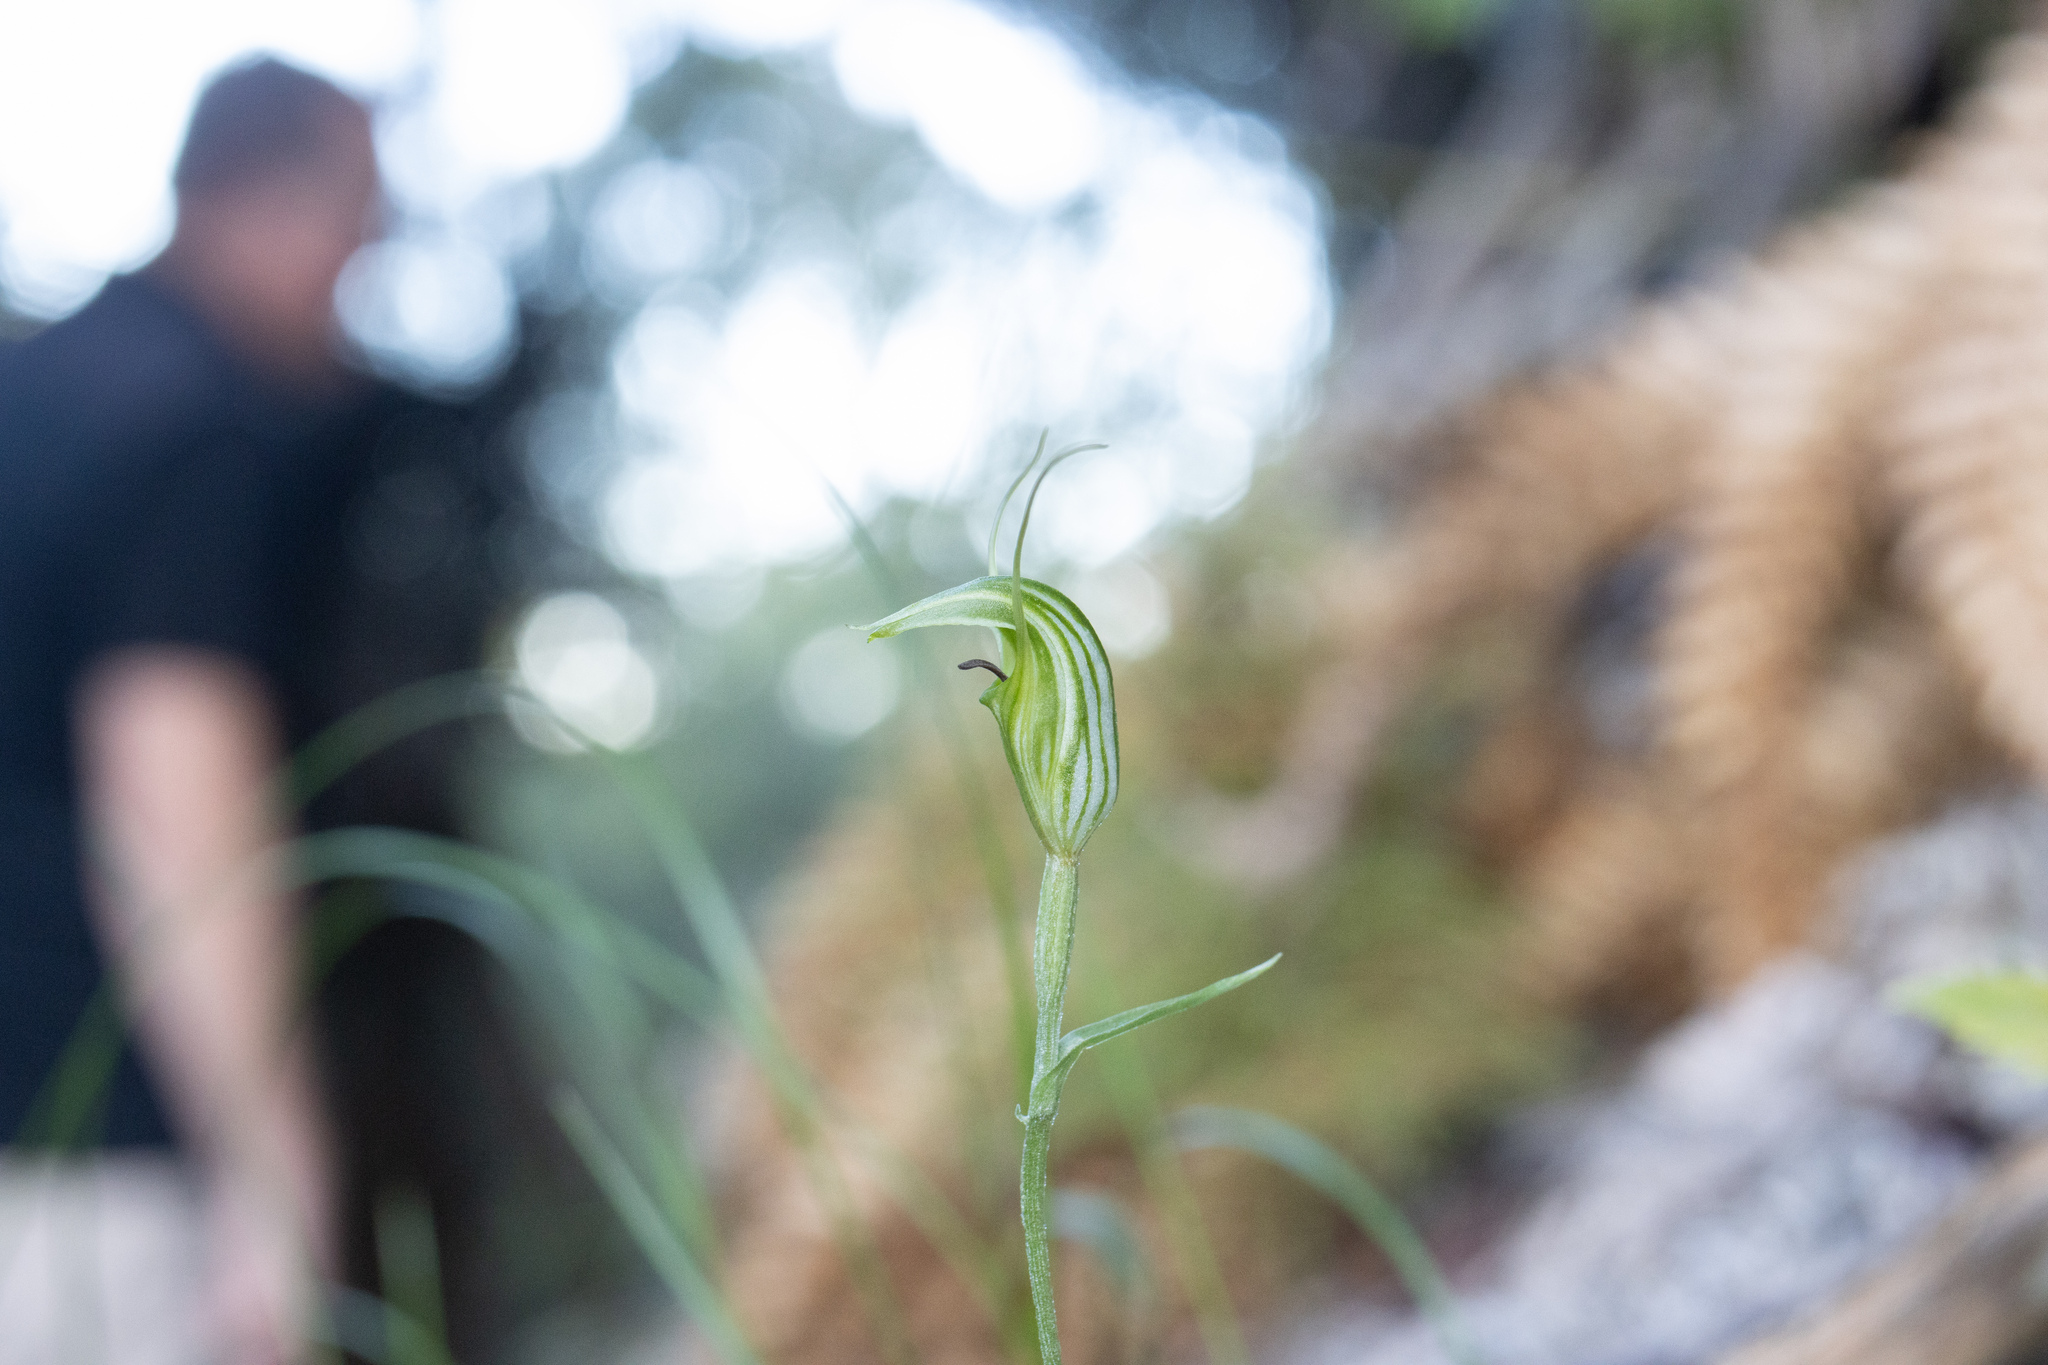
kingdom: Plantae
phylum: Tracheophyta
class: Liliopsida
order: Asparagales
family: Orchidaceae
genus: Pterostylis
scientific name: Pterostylis trullifolia
